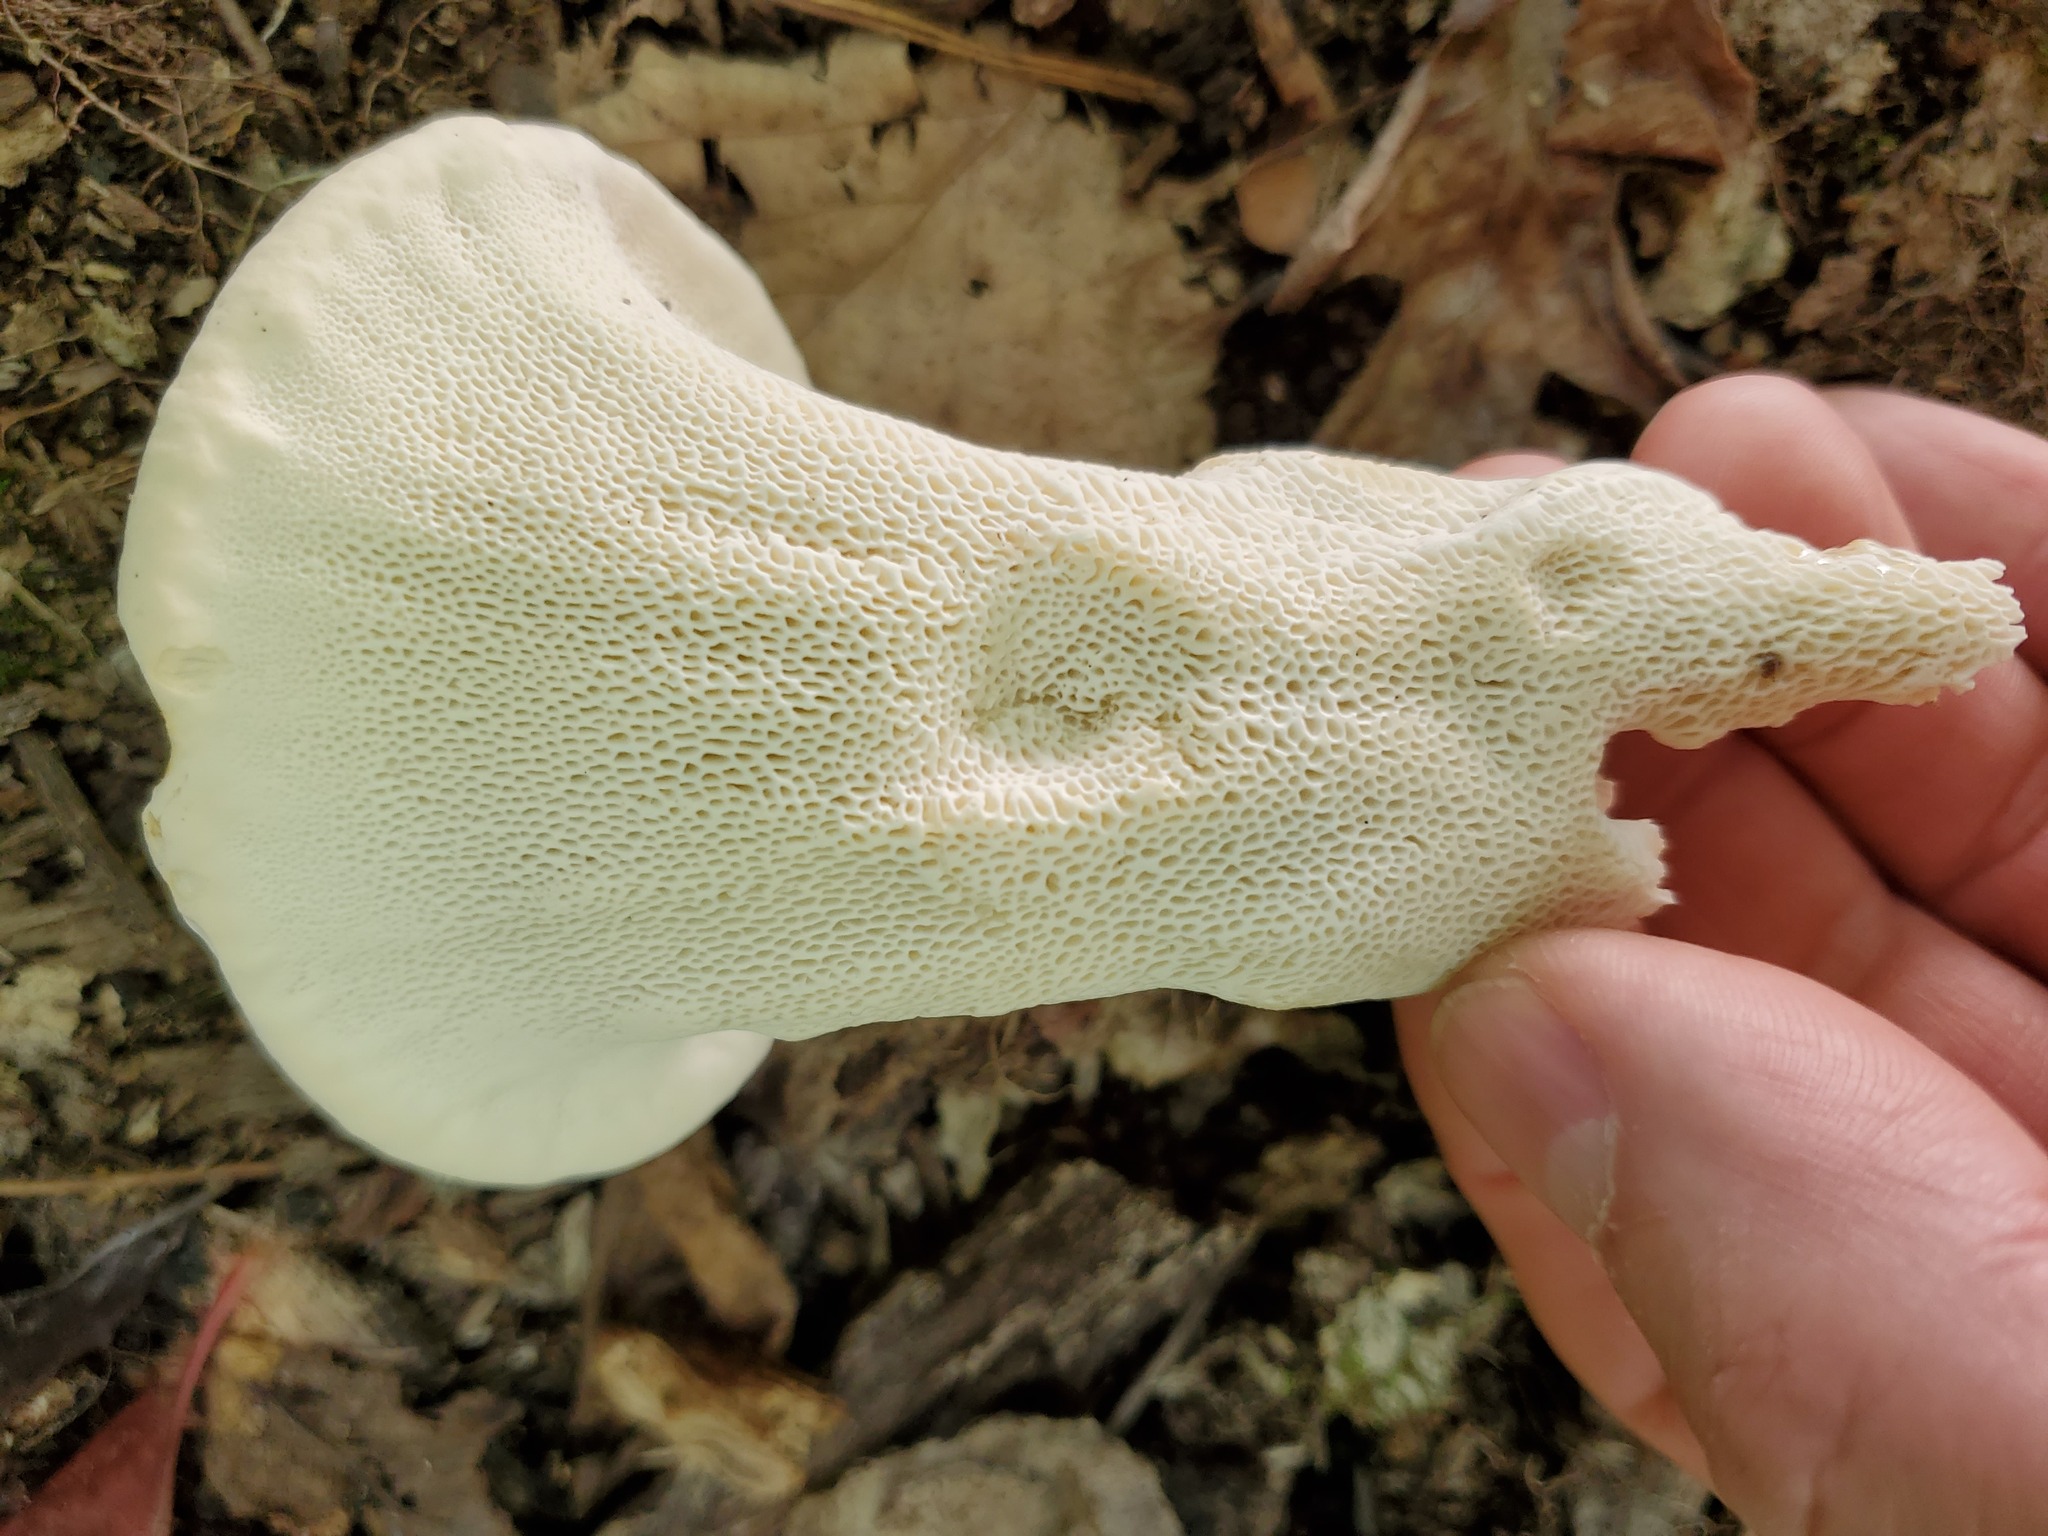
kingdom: Fungi
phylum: Basidiomycota
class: Agaricomycetes
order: Russulales
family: Bondarzewiaceae
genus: Bondarzewia
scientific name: Bondarzewia berkeleyi
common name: Berkeley's polypore
